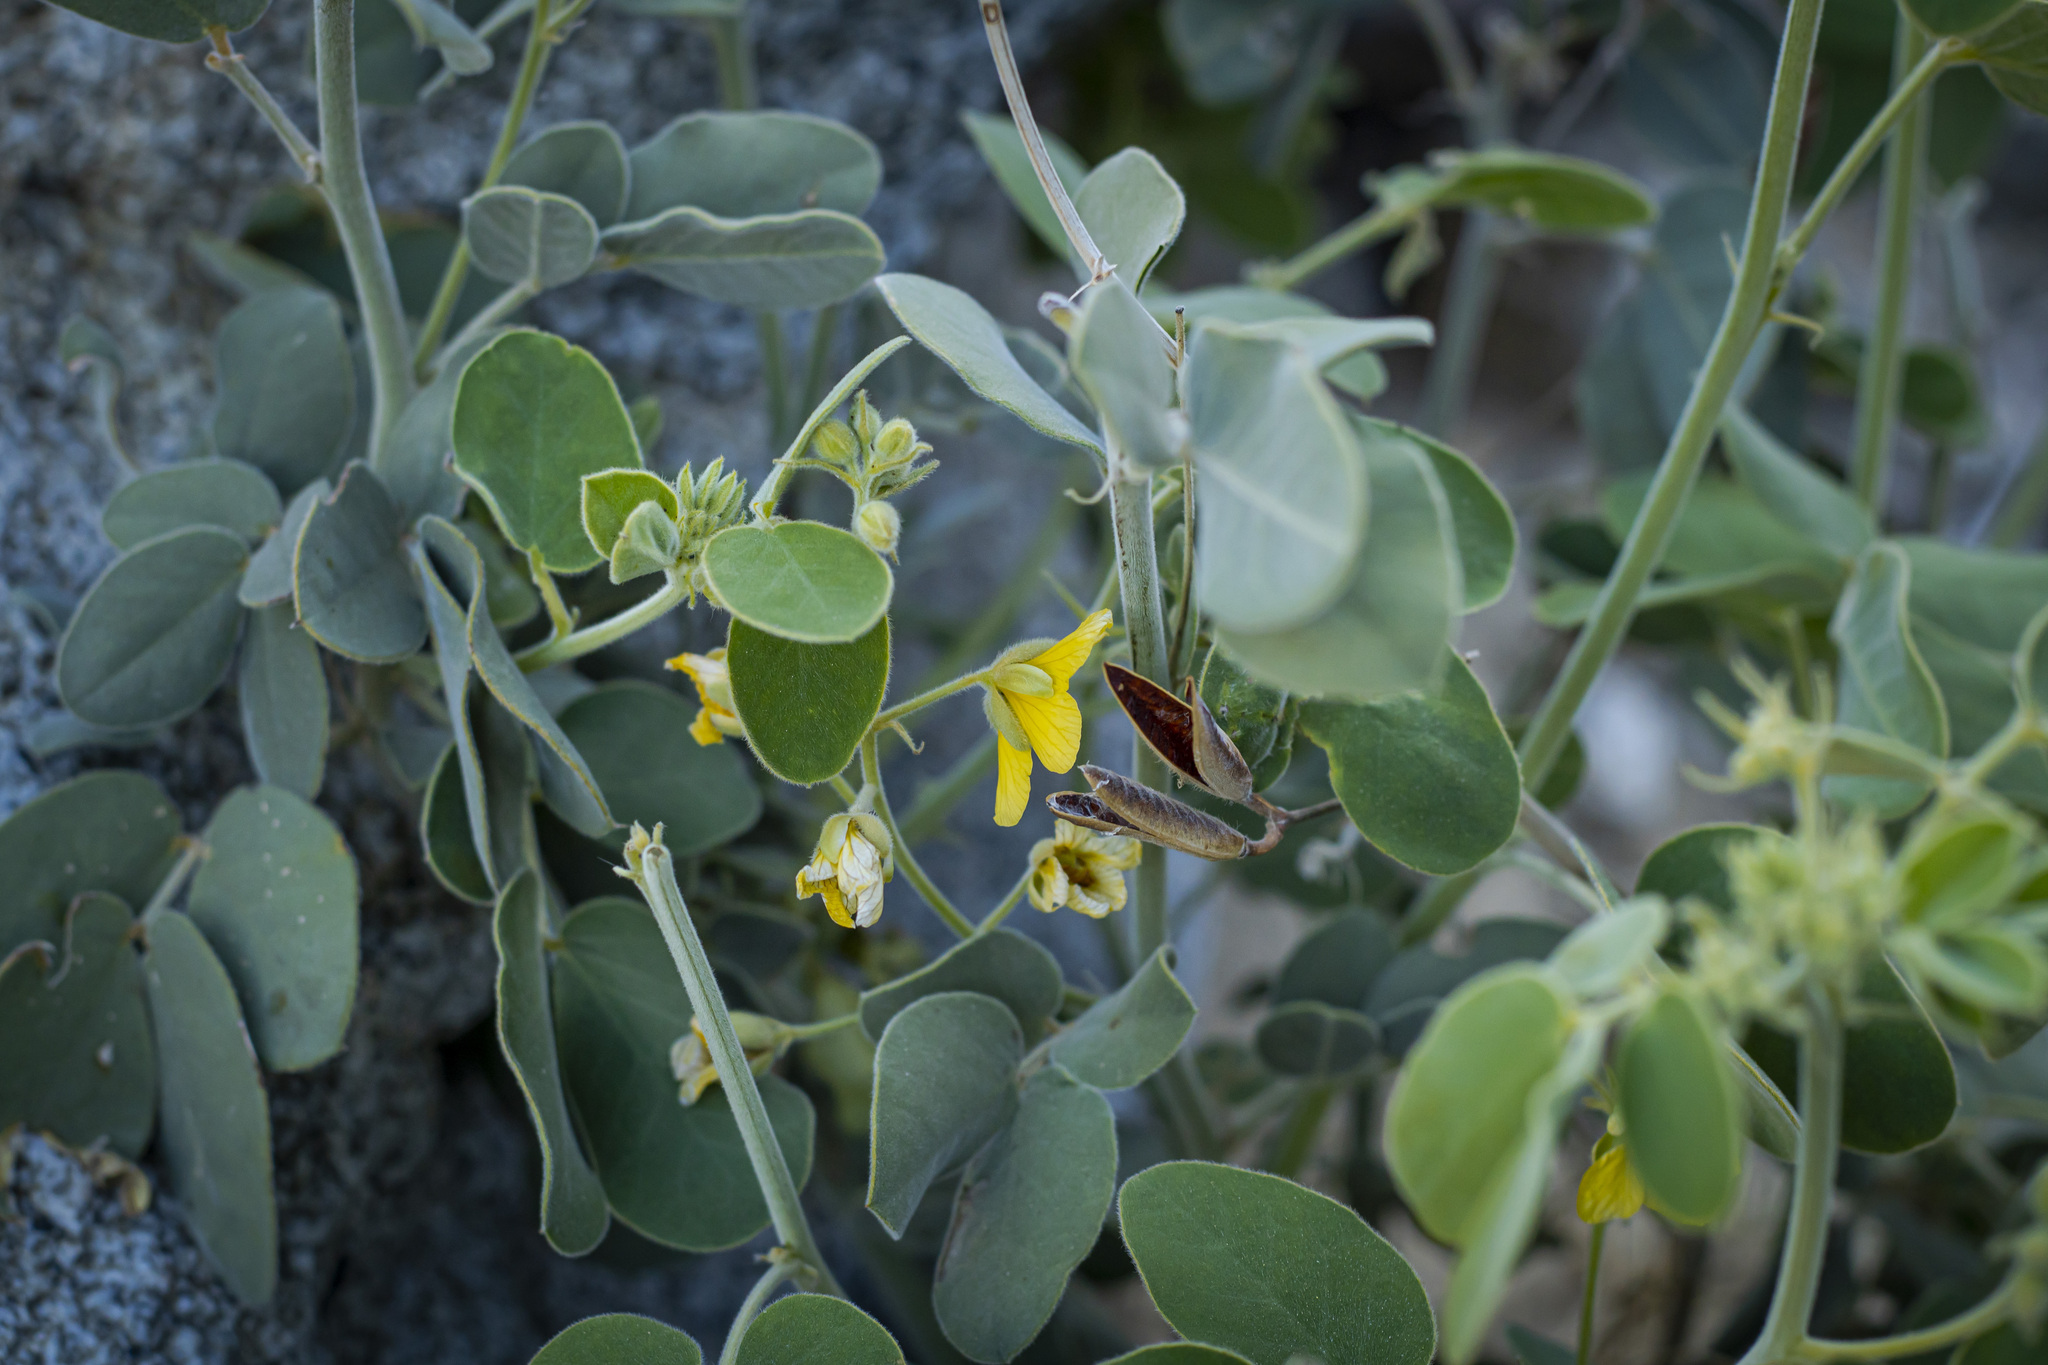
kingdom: Plantae
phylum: Tracheophyta
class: Magnoliopsida
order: Fabales
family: Fabaceae
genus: Senna
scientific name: Senna confinis
